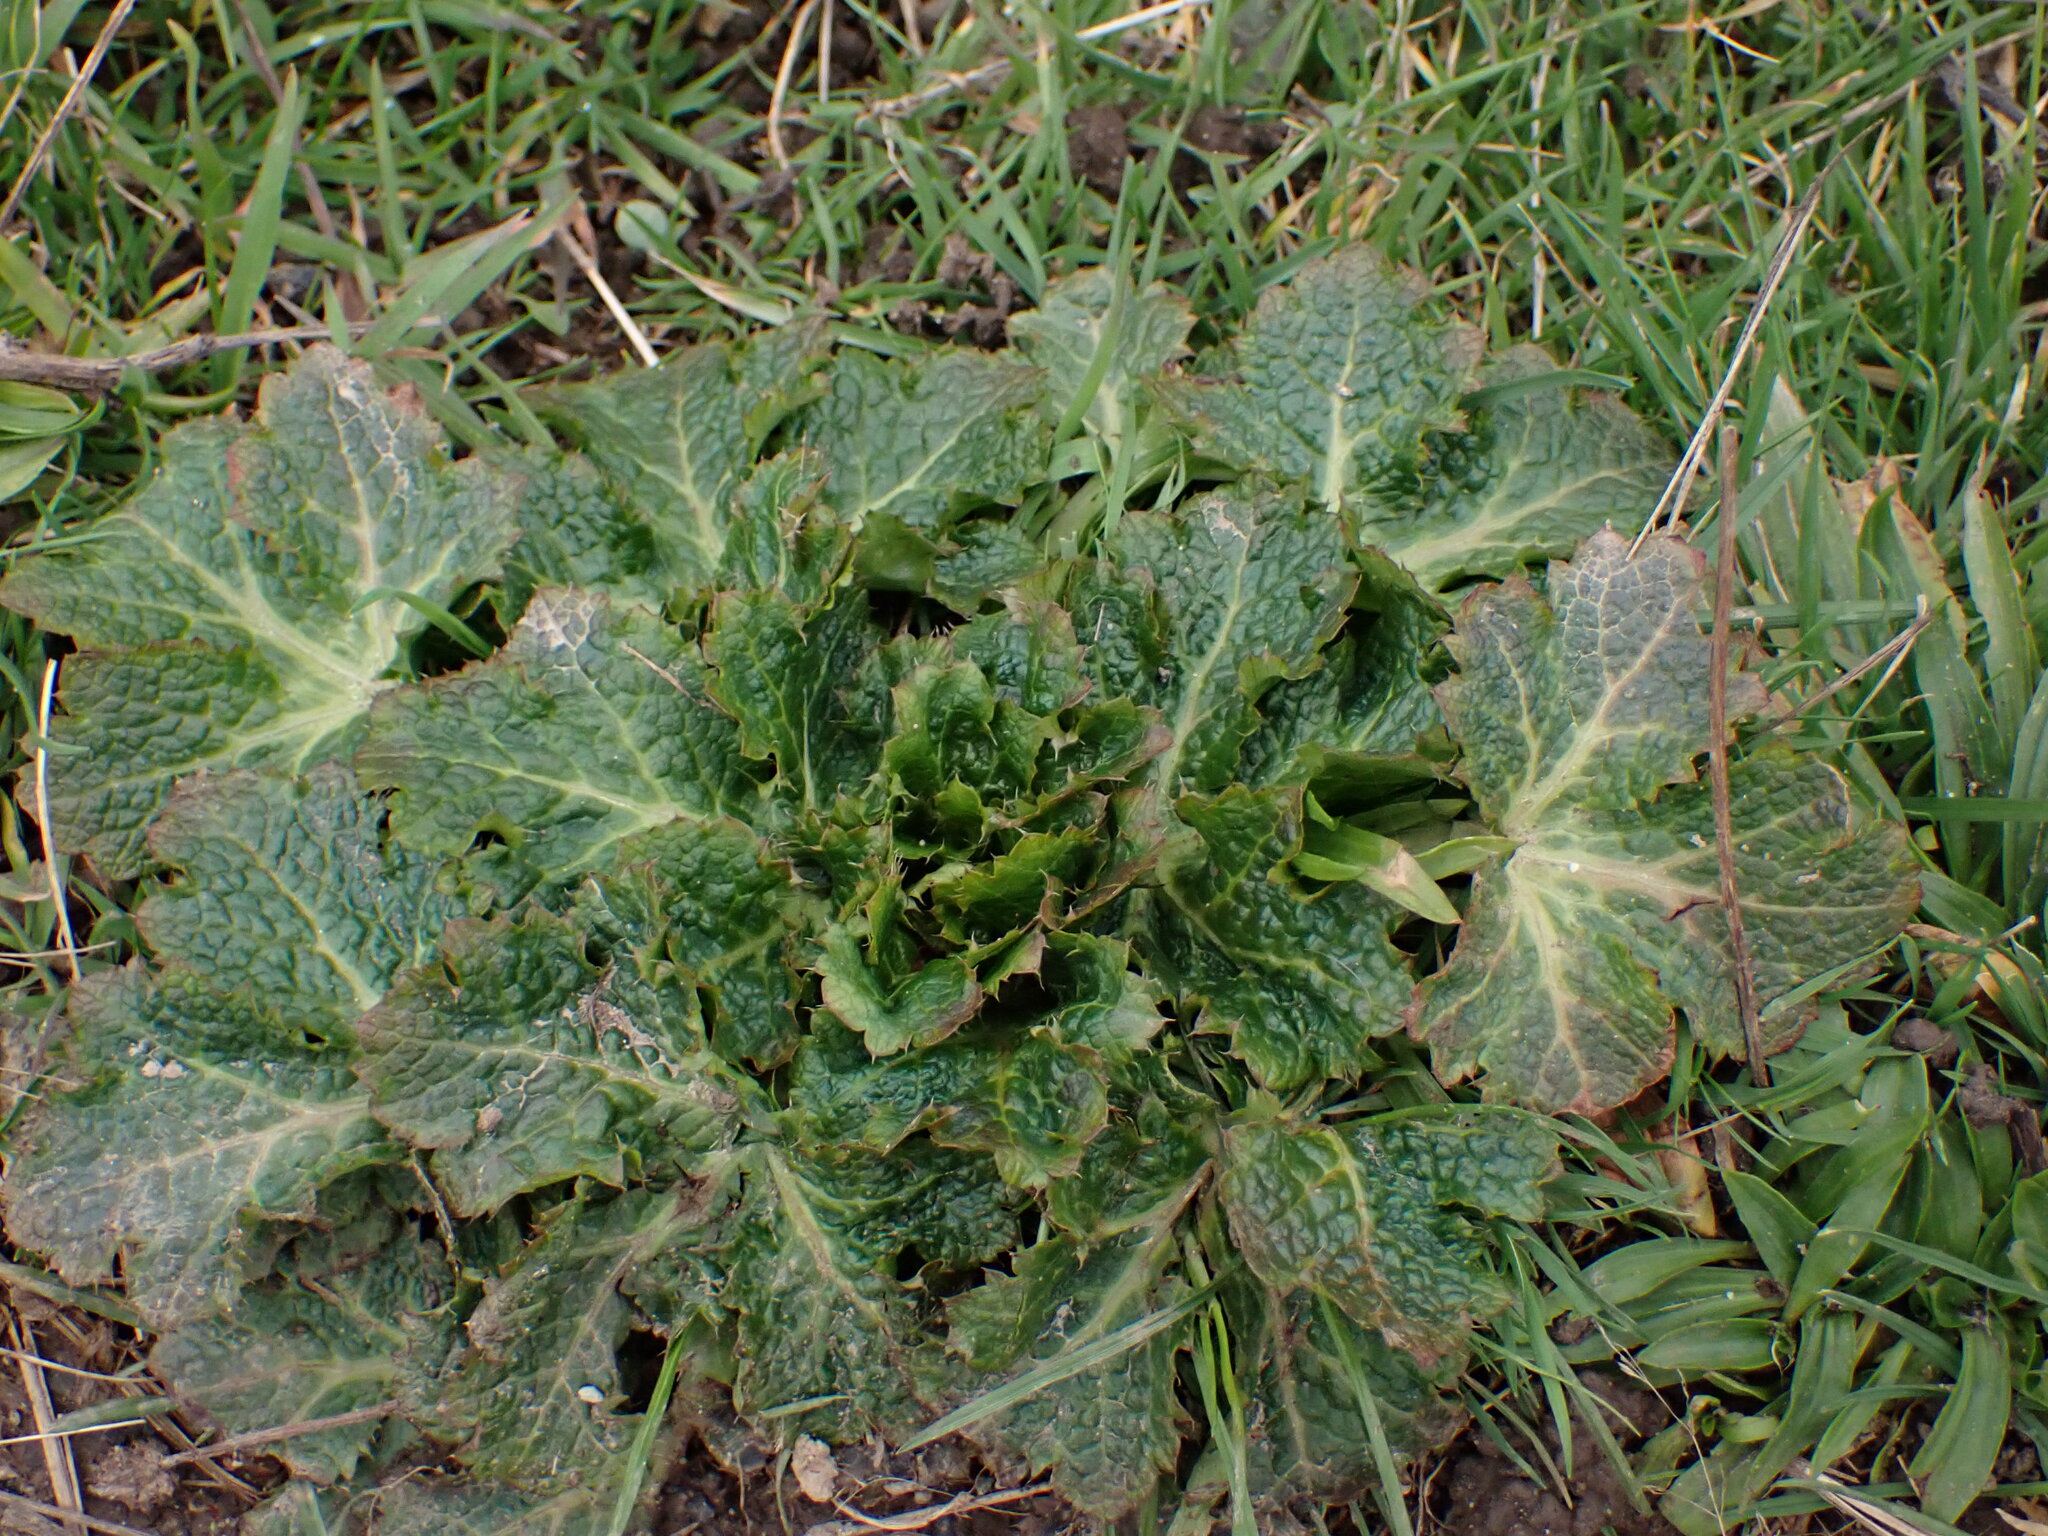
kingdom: Plantae
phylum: Tracheophyta
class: Magnoliopsida
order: Apiales
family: Apiaceae
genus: Sanicula
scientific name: Sanicula crassicaulis
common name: Western snakeroot
